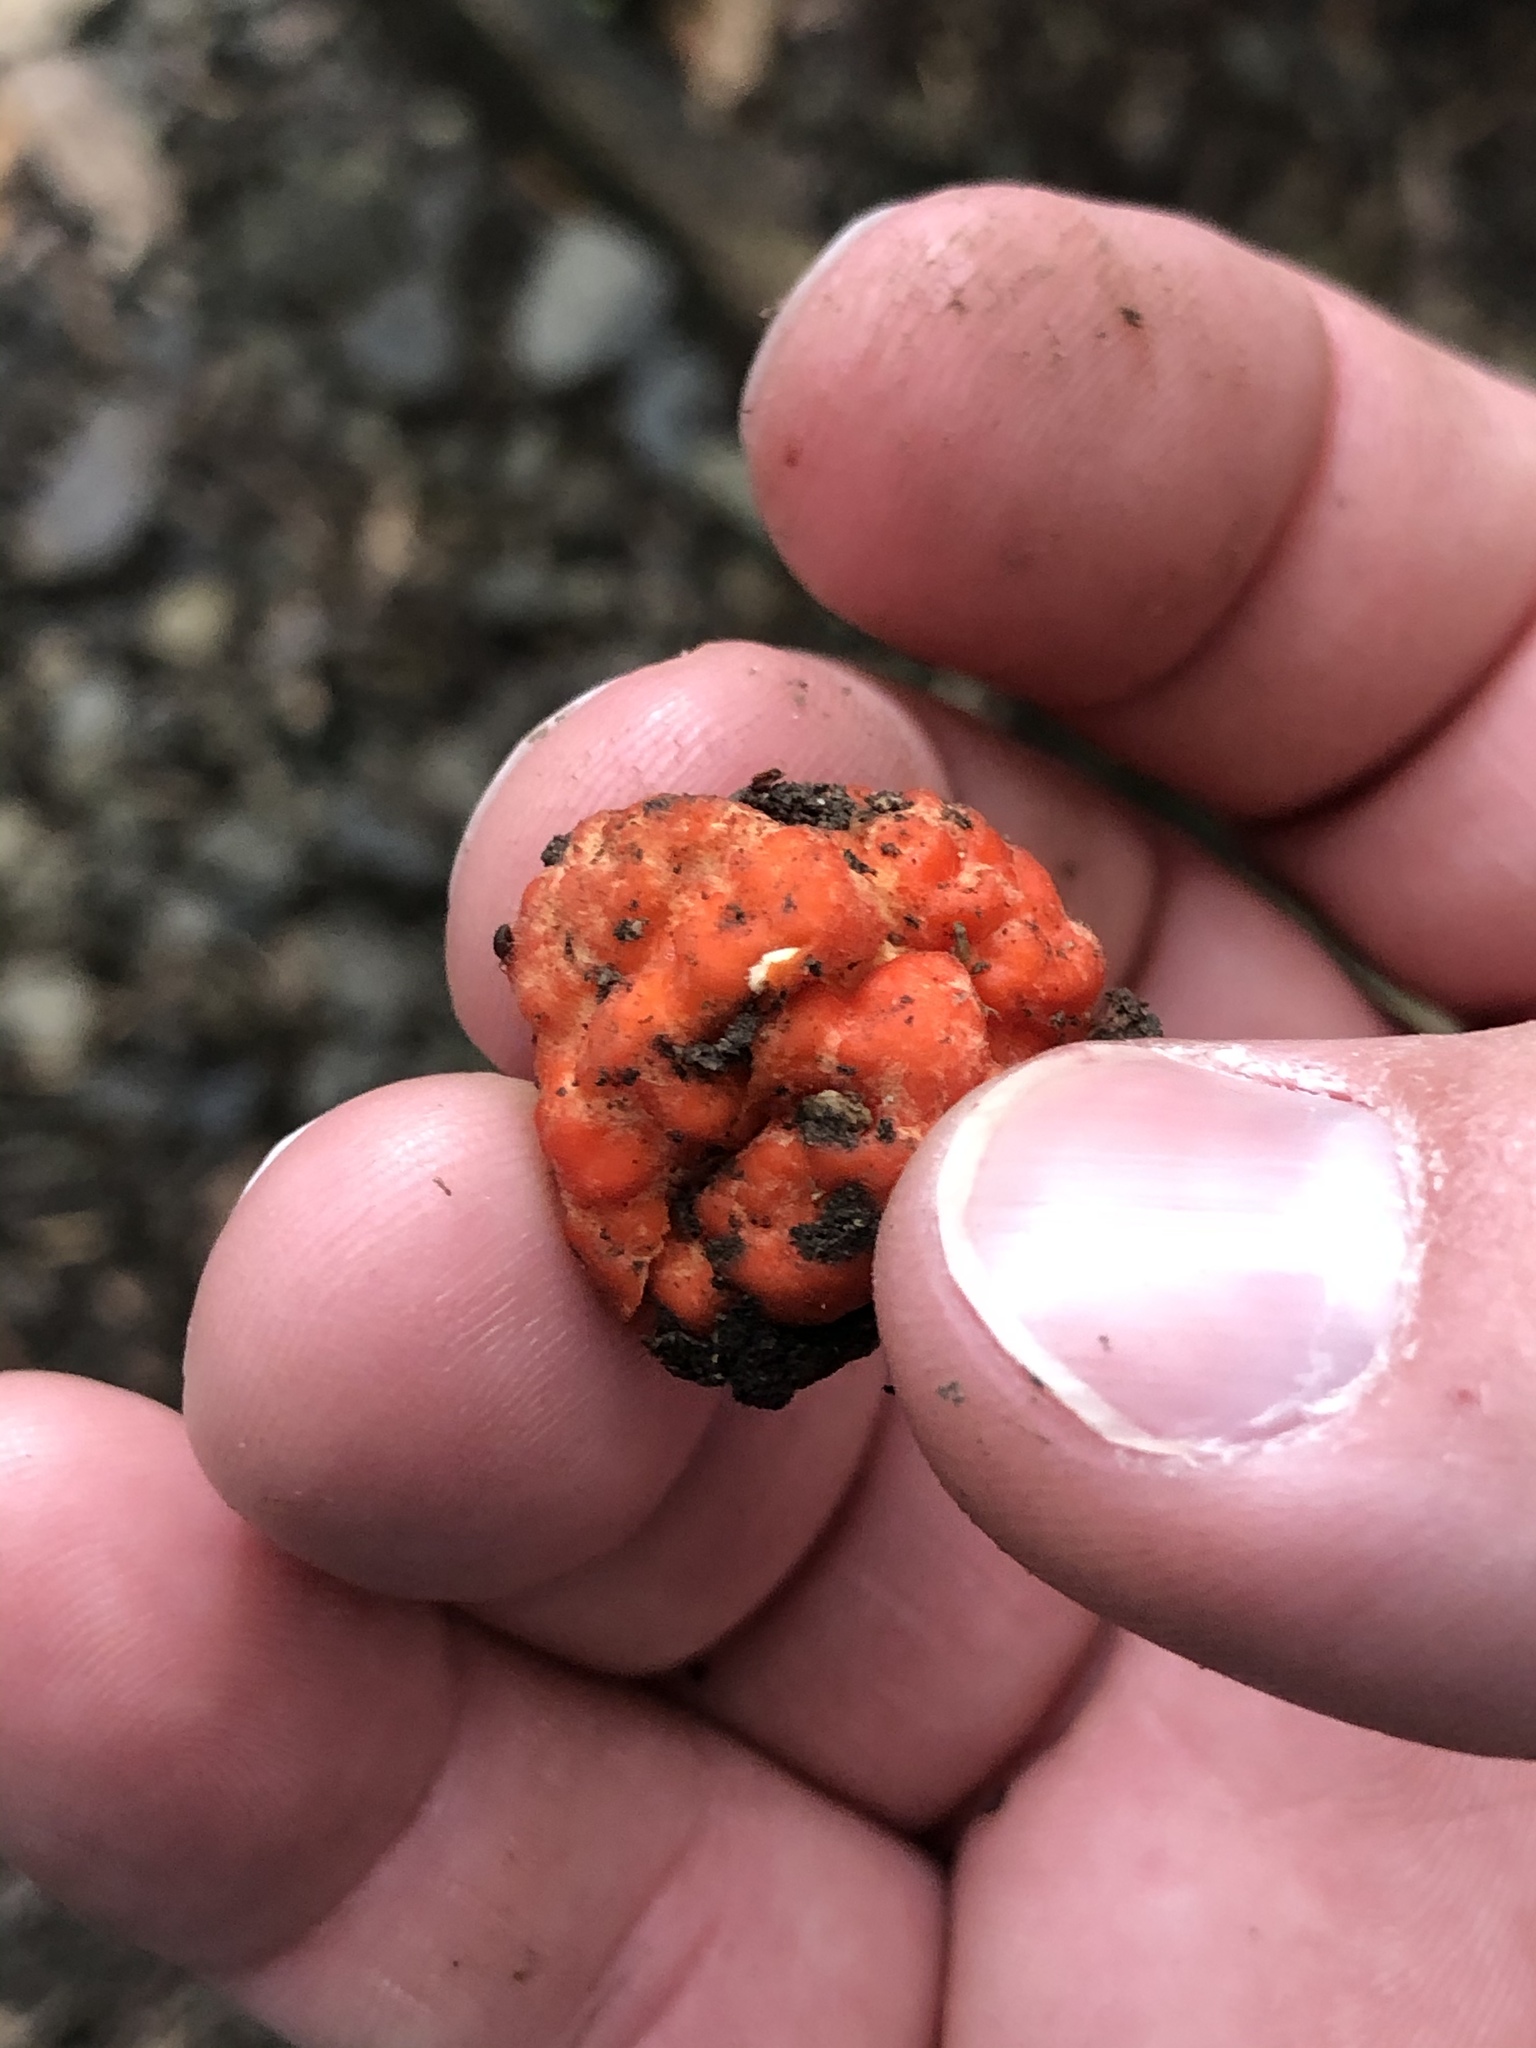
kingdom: Fungi
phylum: Ascomycota
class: Pezizomycetes
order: Pezizales
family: Pyronemataceae
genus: Paurocotylis
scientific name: Paurocotylis pila
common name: Scarlet berry truffle
